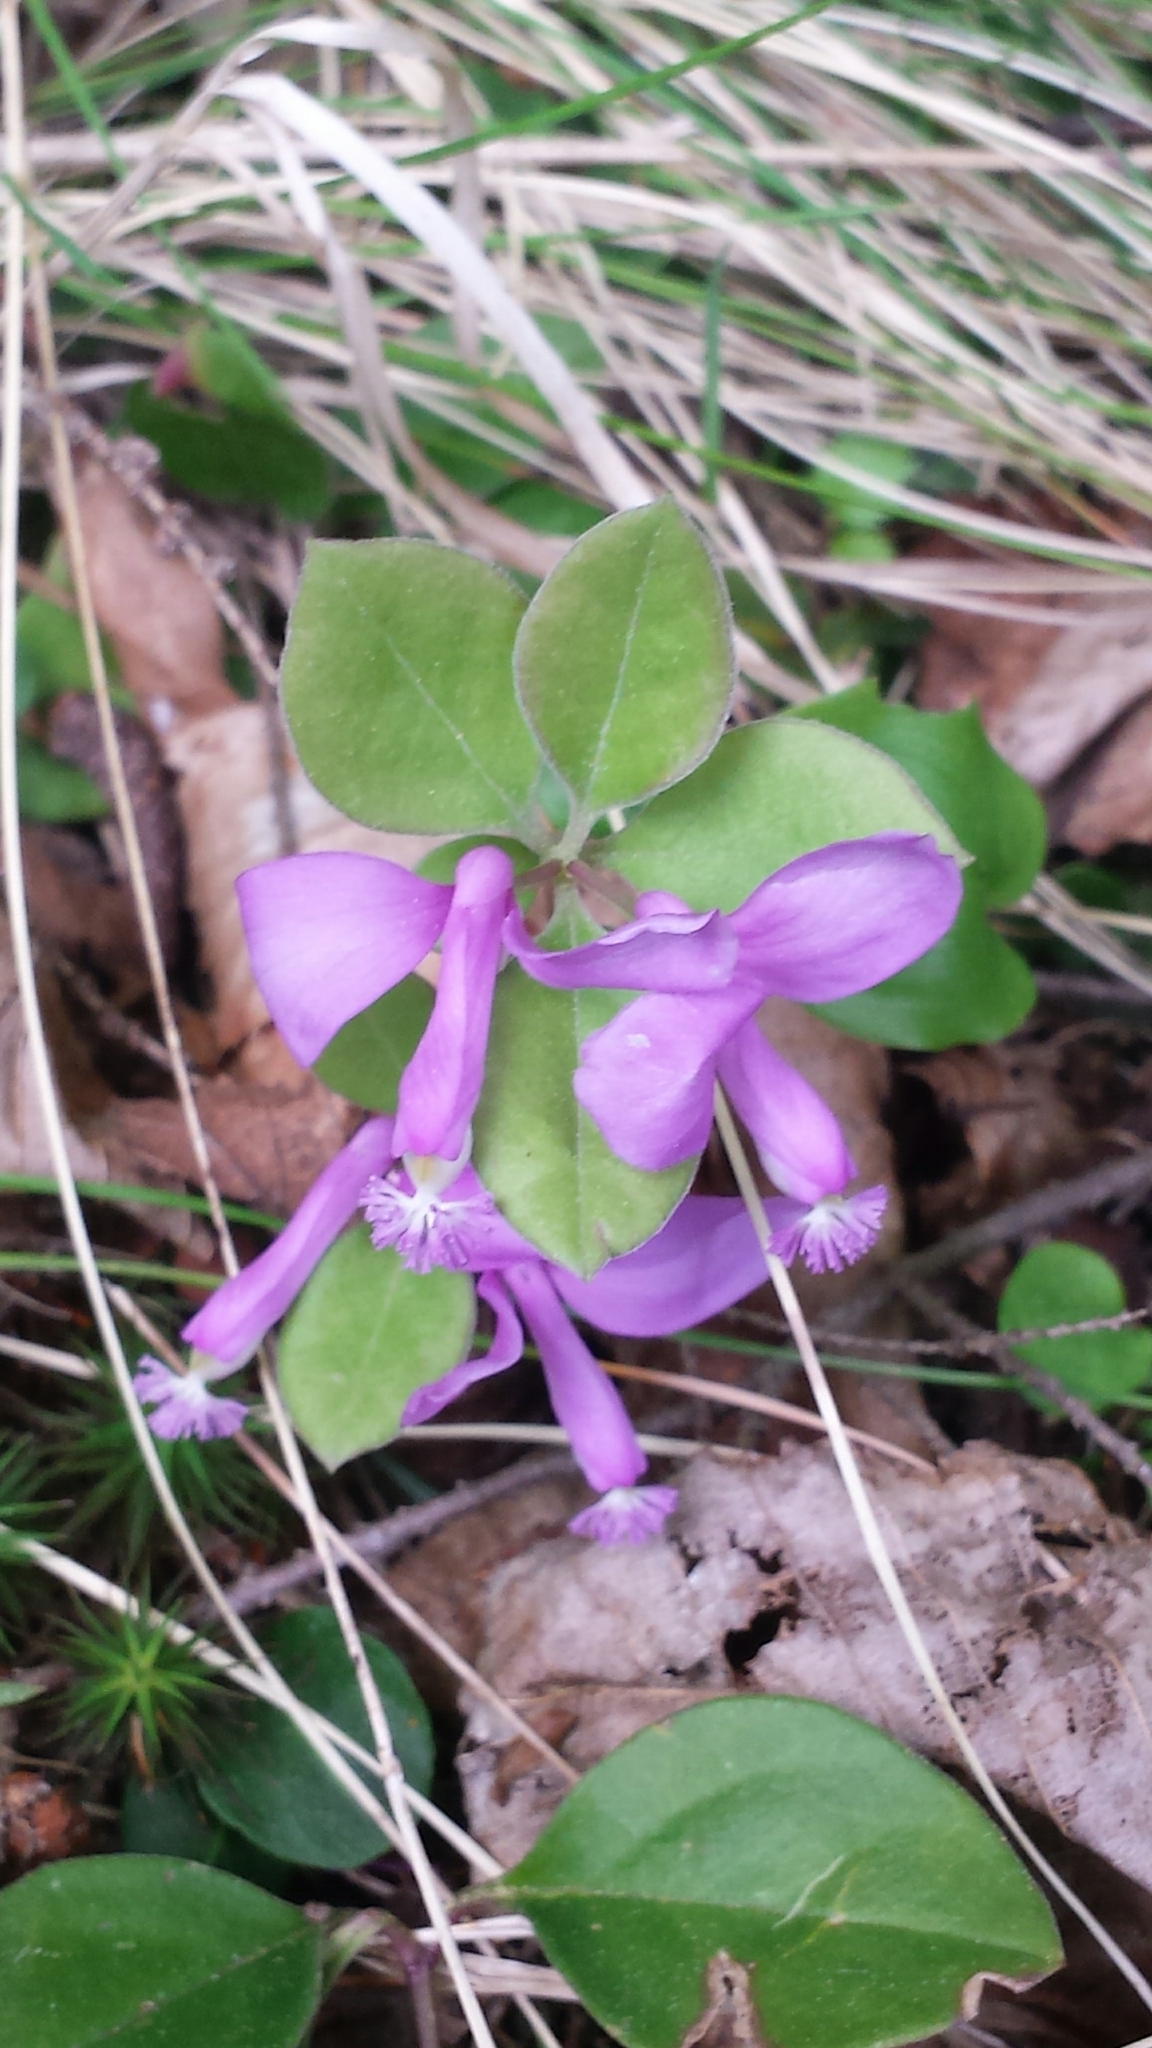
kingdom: Plantae
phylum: Tracheophyta
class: Magnoliopsida
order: Fabales
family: Polygalaceae
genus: Polygaloides
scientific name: Polygaloides paucifolia
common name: Bird-on-the-wing
